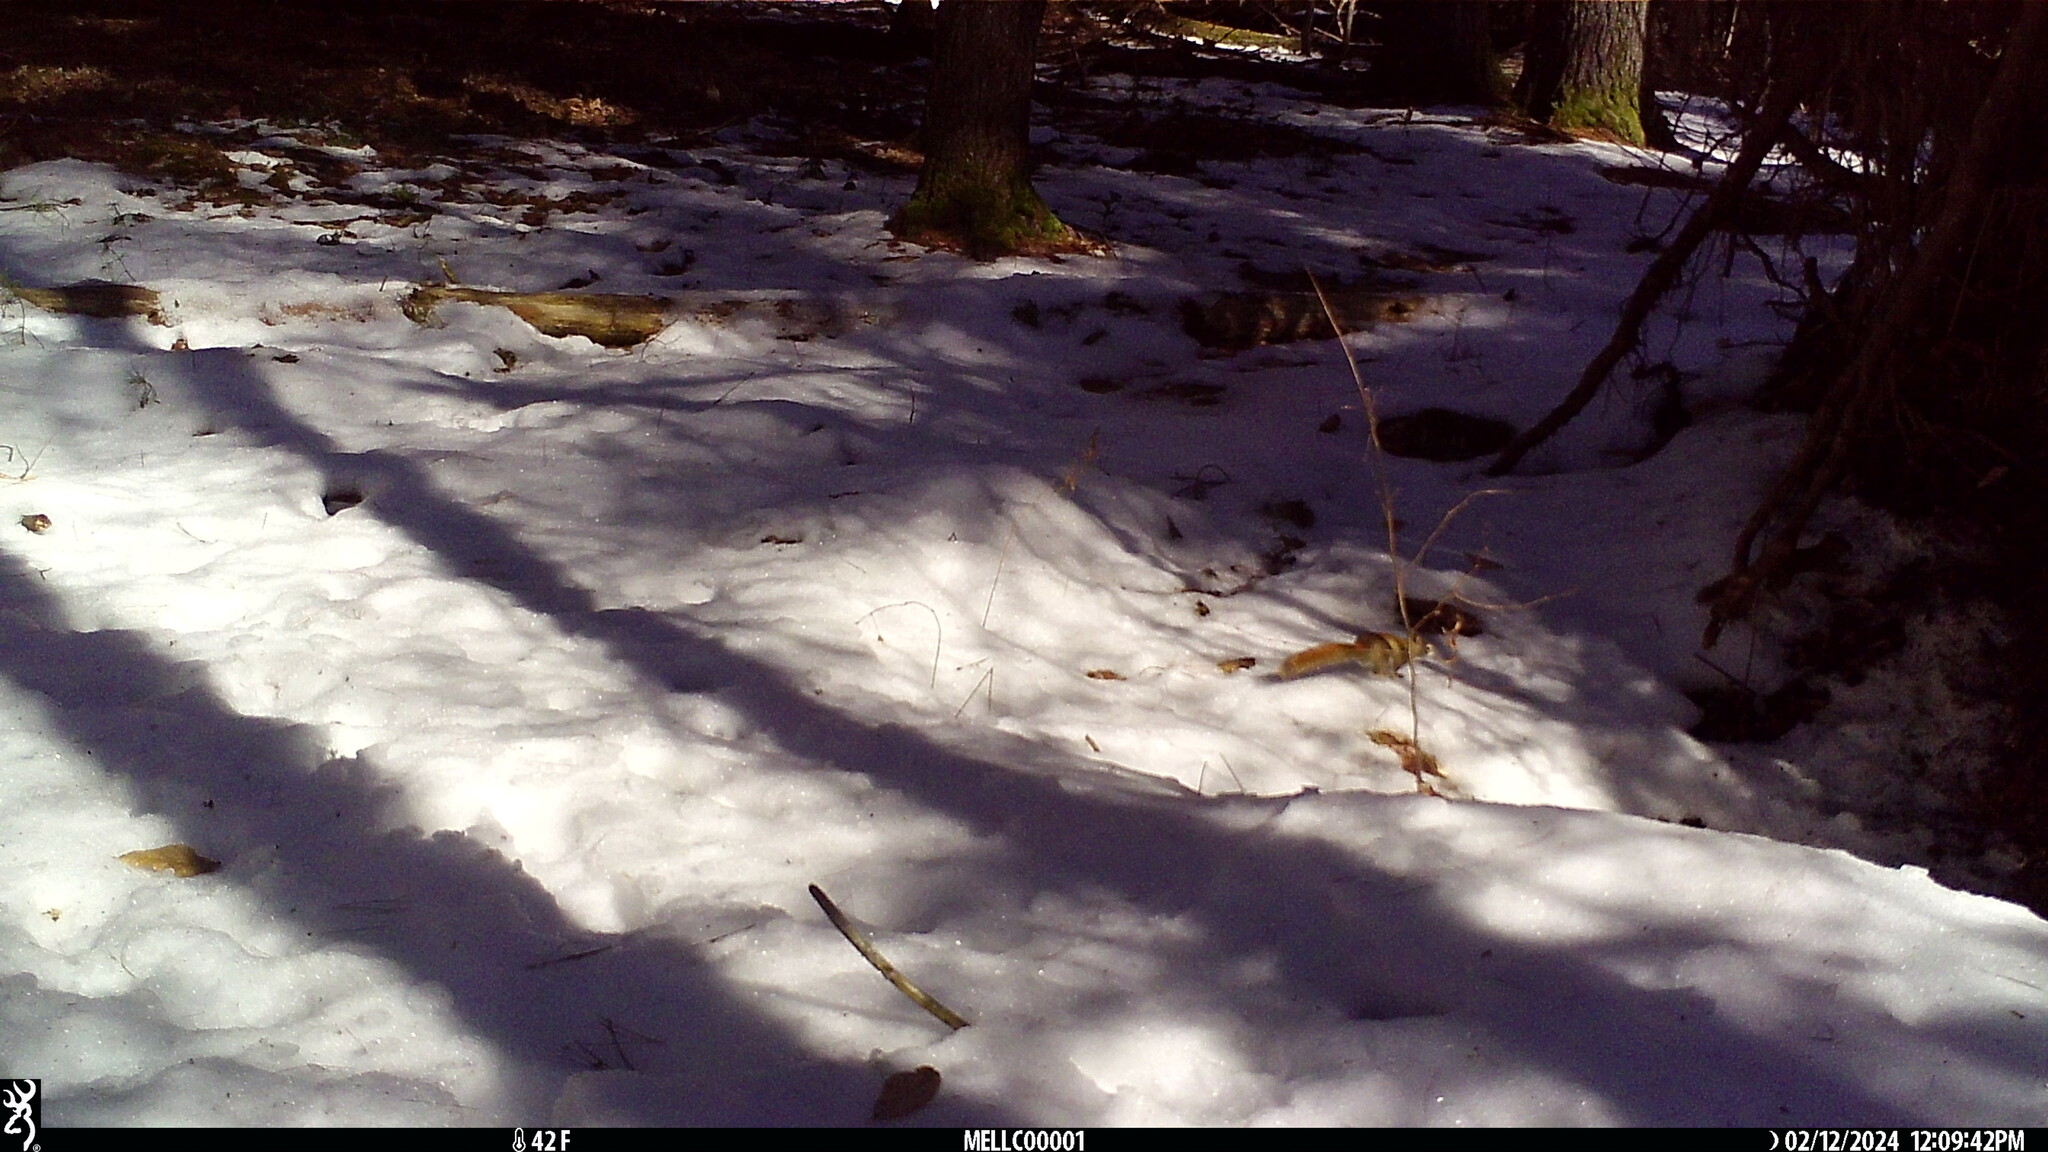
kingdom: Animalia
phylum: Chordata
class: Mammalia
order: Rodentia
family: Sciuridae
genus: Tamiasciurus
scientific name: Tamiasciurus hudsonicus
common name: Red squirrel
